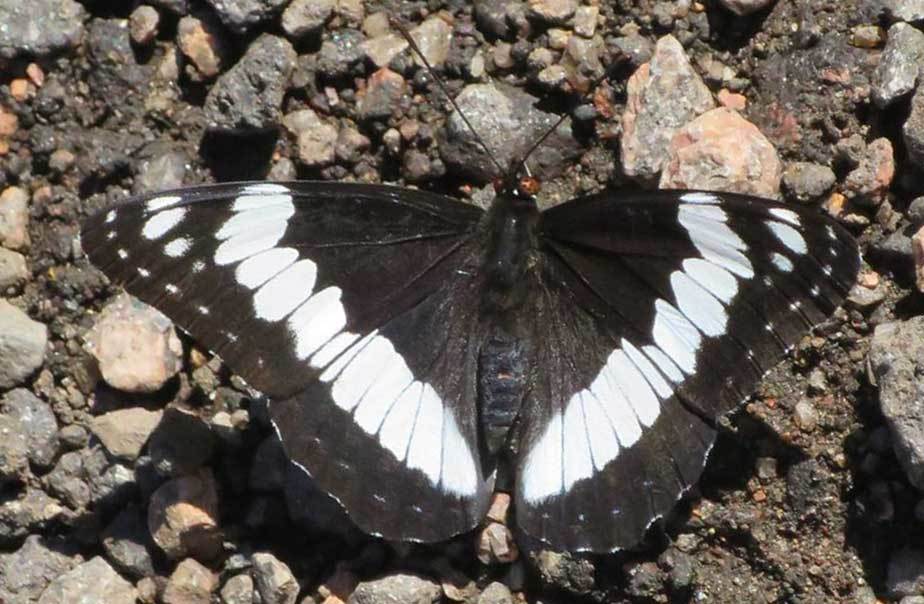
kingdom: Animalia
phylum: Arthropoda
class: Insecta
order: Lepidoptera
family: Nymphalidae
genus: Limenitis
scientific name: Limenitis weidemeyerii
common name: Weidemeyer's admiral
